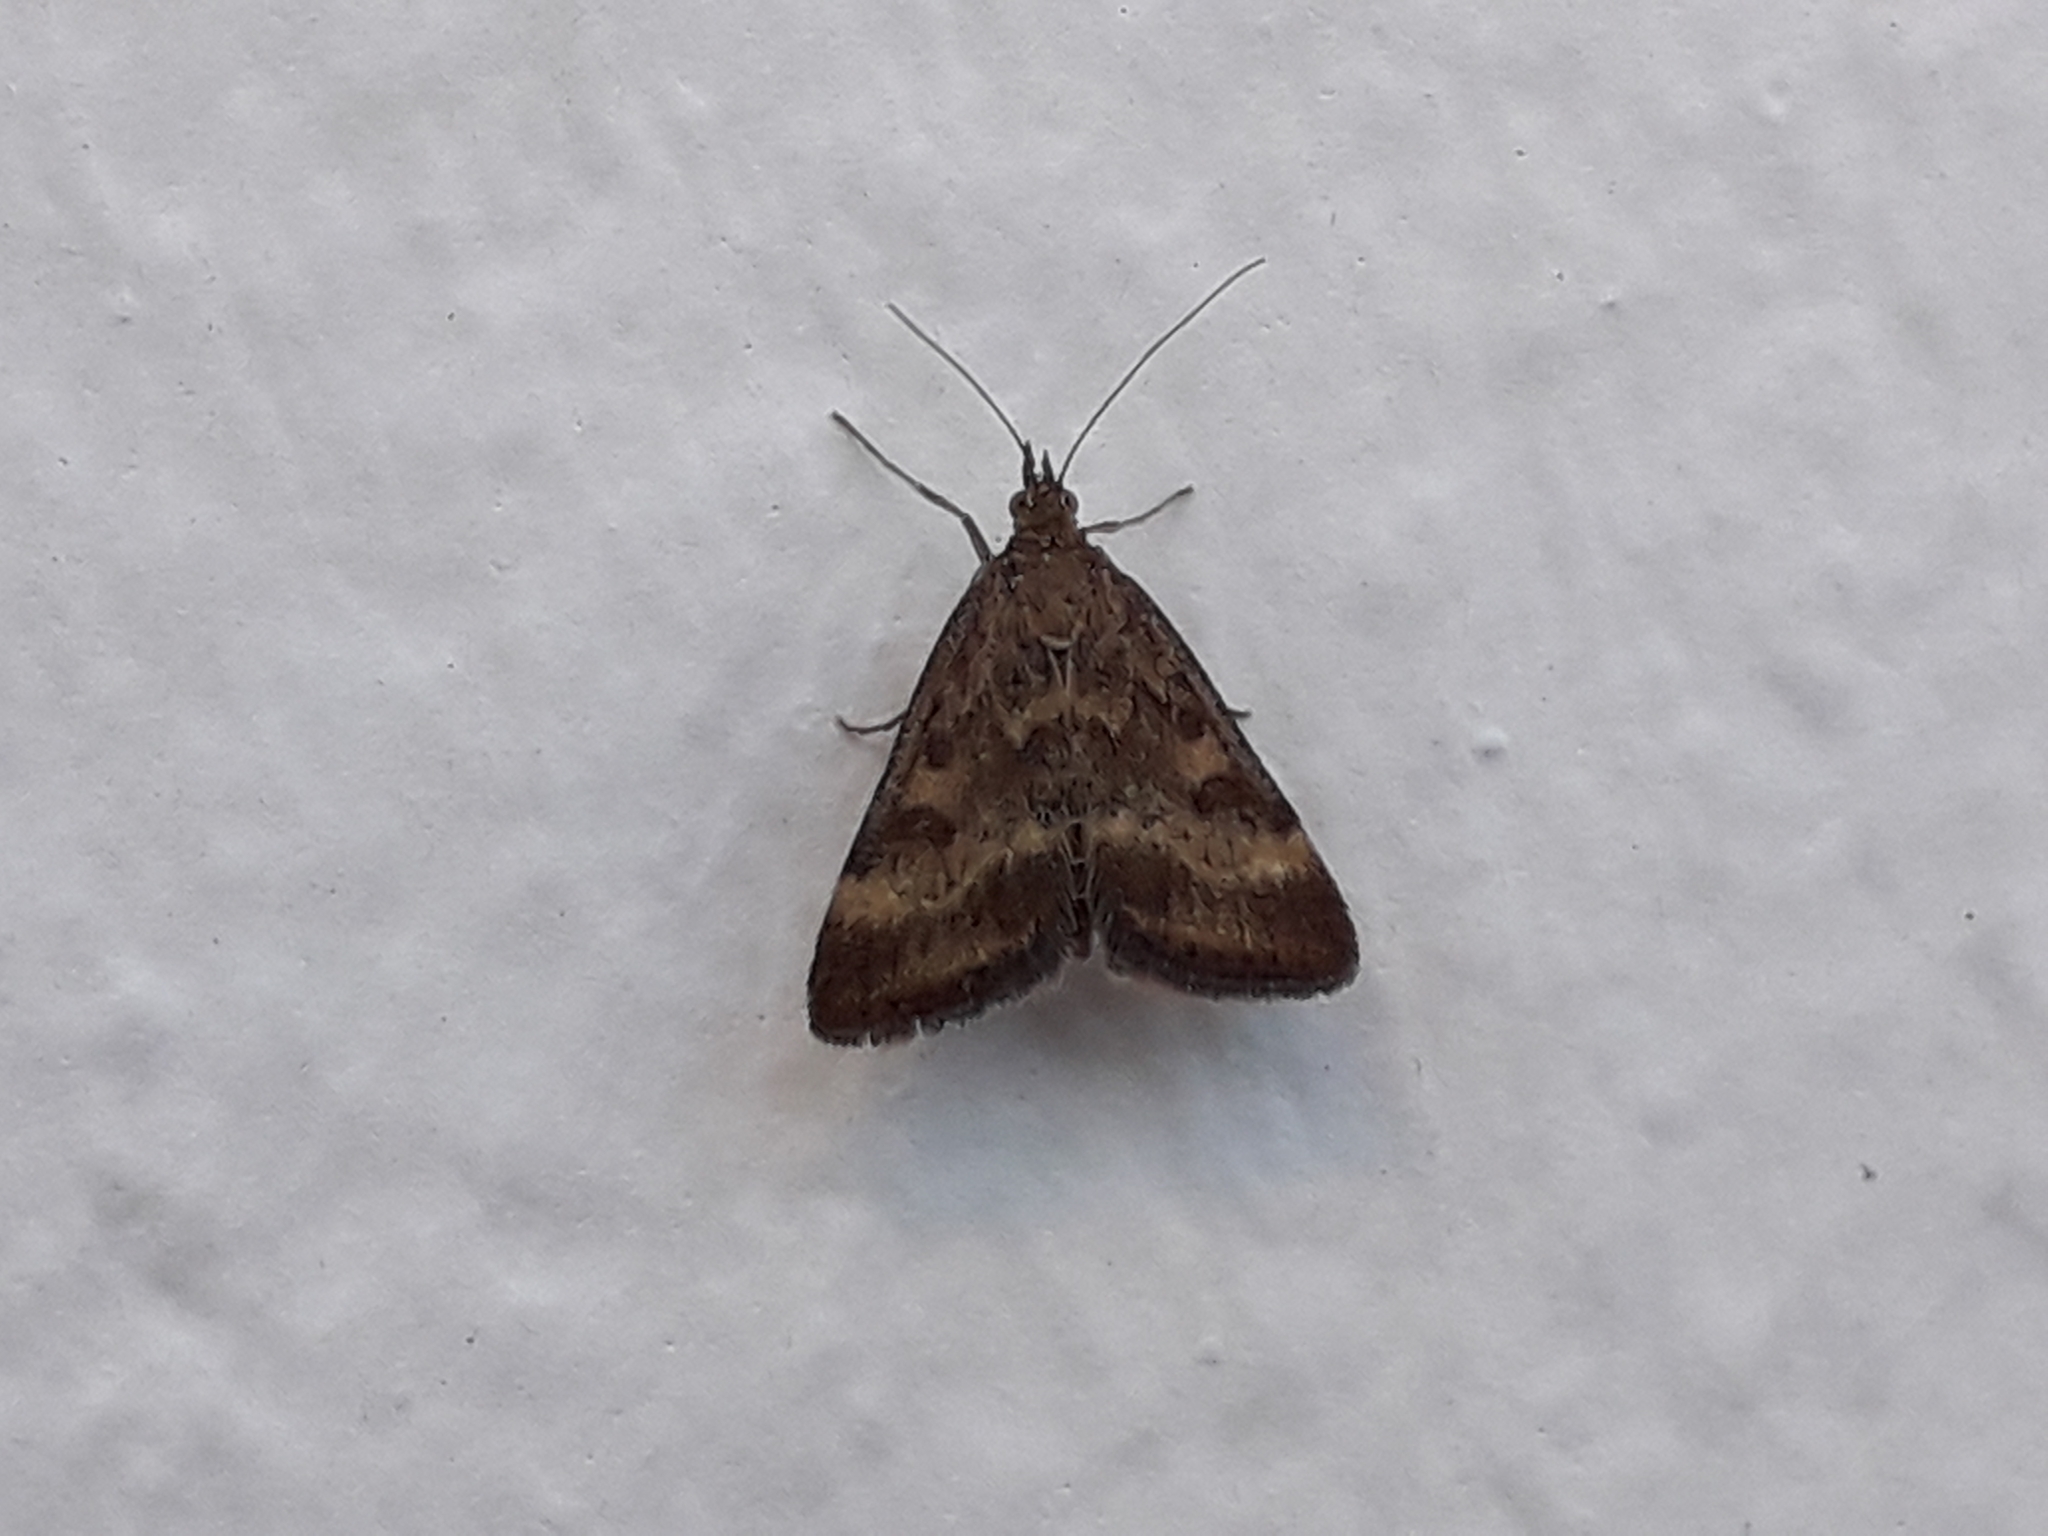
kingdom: Animalia
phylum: Arthropoda
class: Insecta
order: Lepidoptera
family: Crambidae
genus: Pyrausta
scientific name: Pyrausta despicata
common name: Straw-barred pearl
